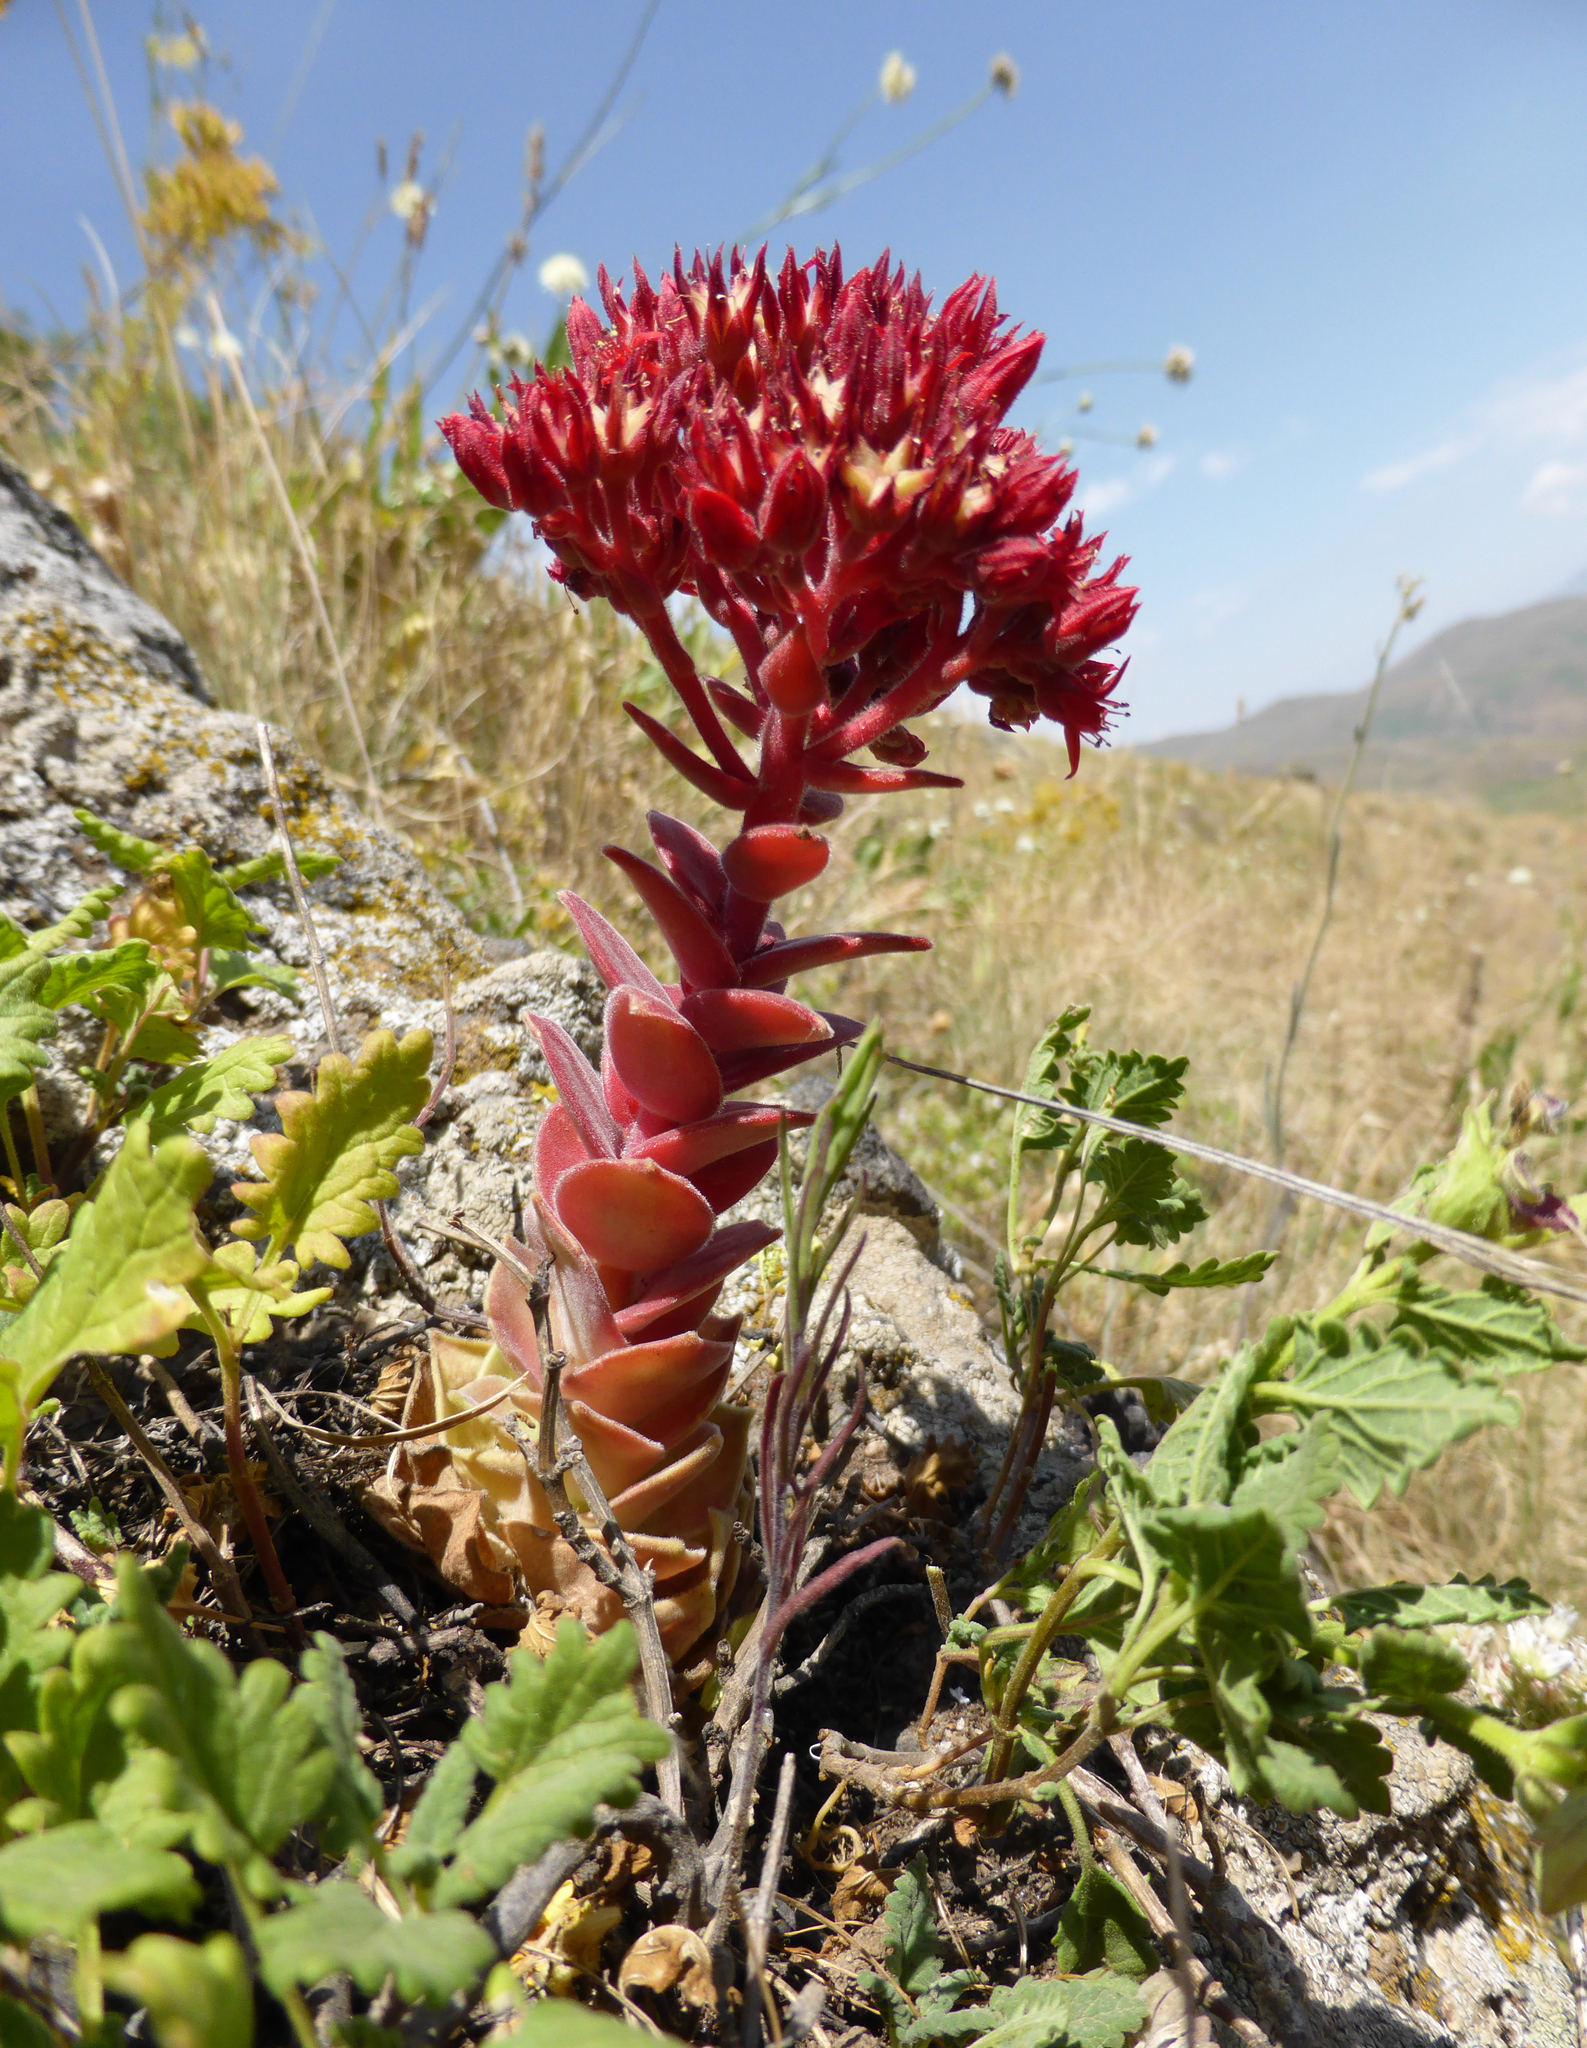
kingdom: Plantae
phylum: Tracheophyta
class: Magnoliopsida
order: Saxifragales
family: Crassulaceae
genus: Prometheum
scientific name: Prometheum sempervivoides
